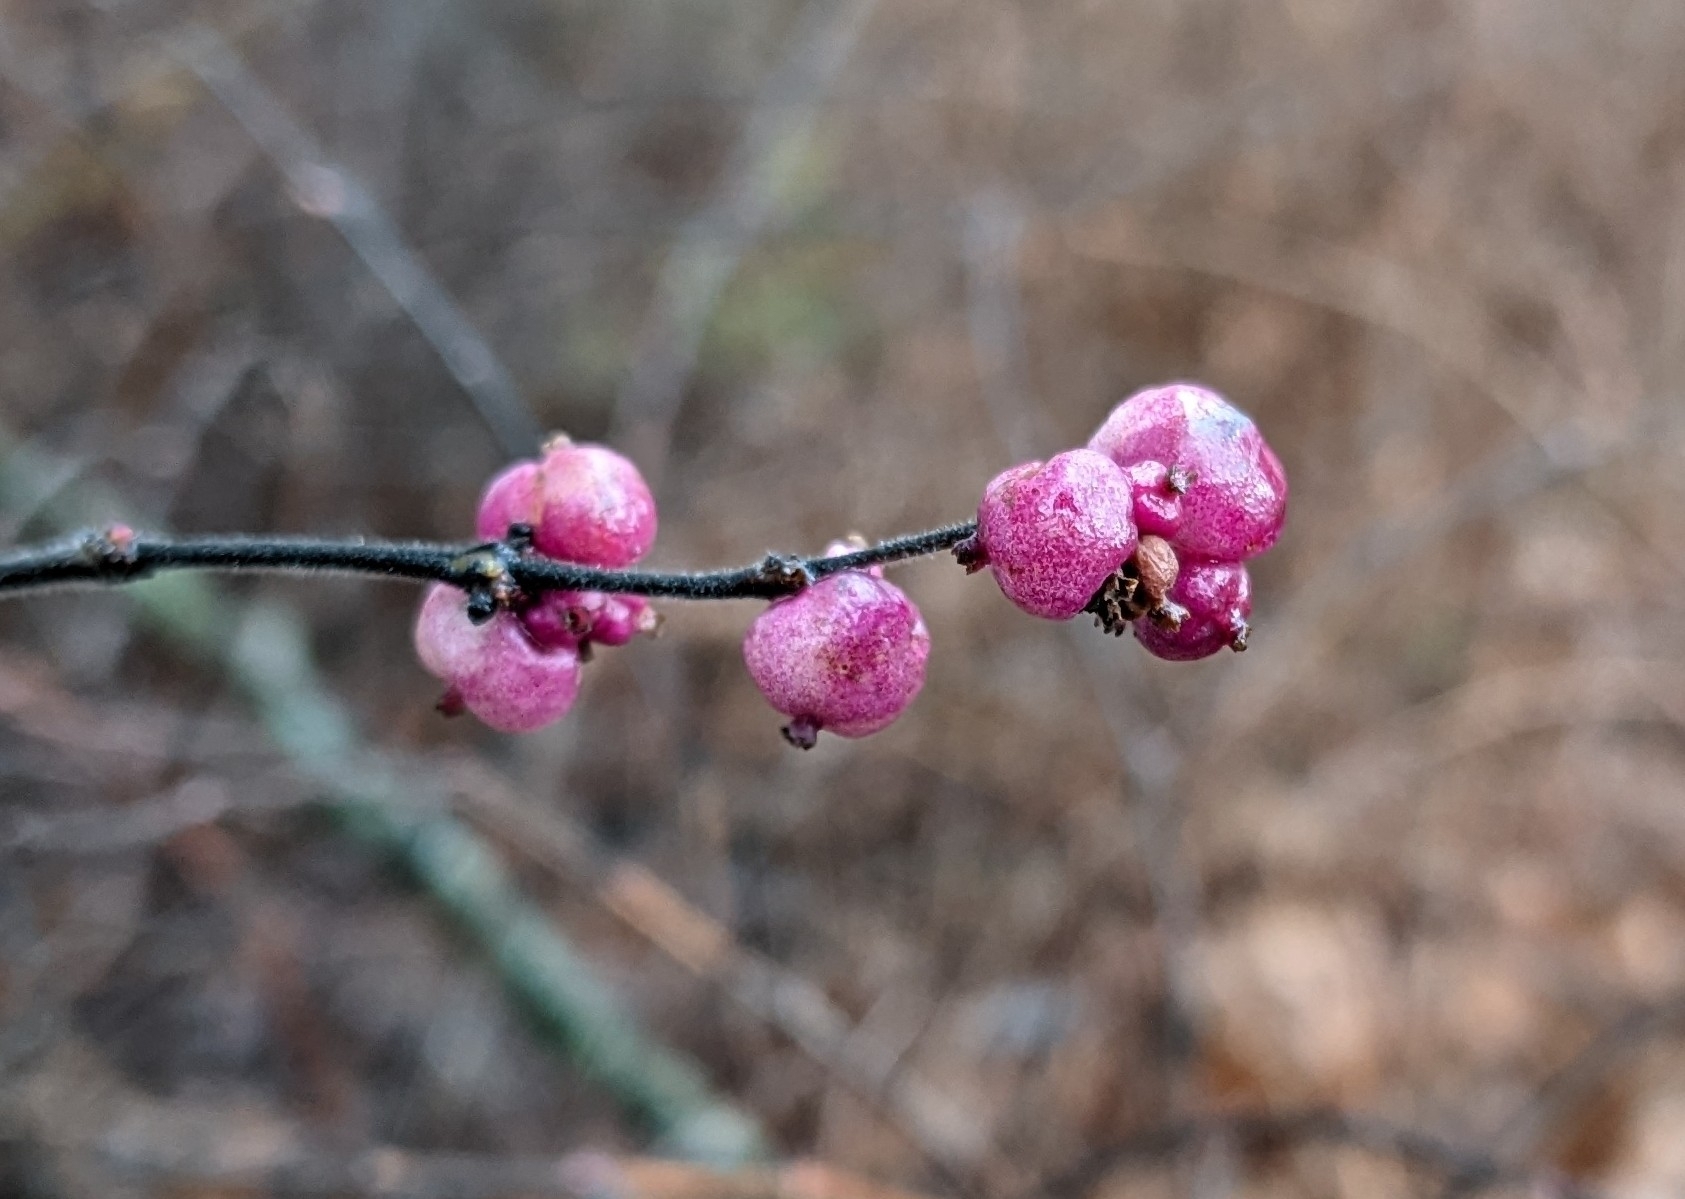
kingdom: Plantae
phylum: Tracheophyta
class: Magnoliopsida
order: Dipsacales
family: Caprifoliaceae
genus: Symphoricarpos
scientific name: Symphoricarpos orbiculatus
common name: Coralberry
